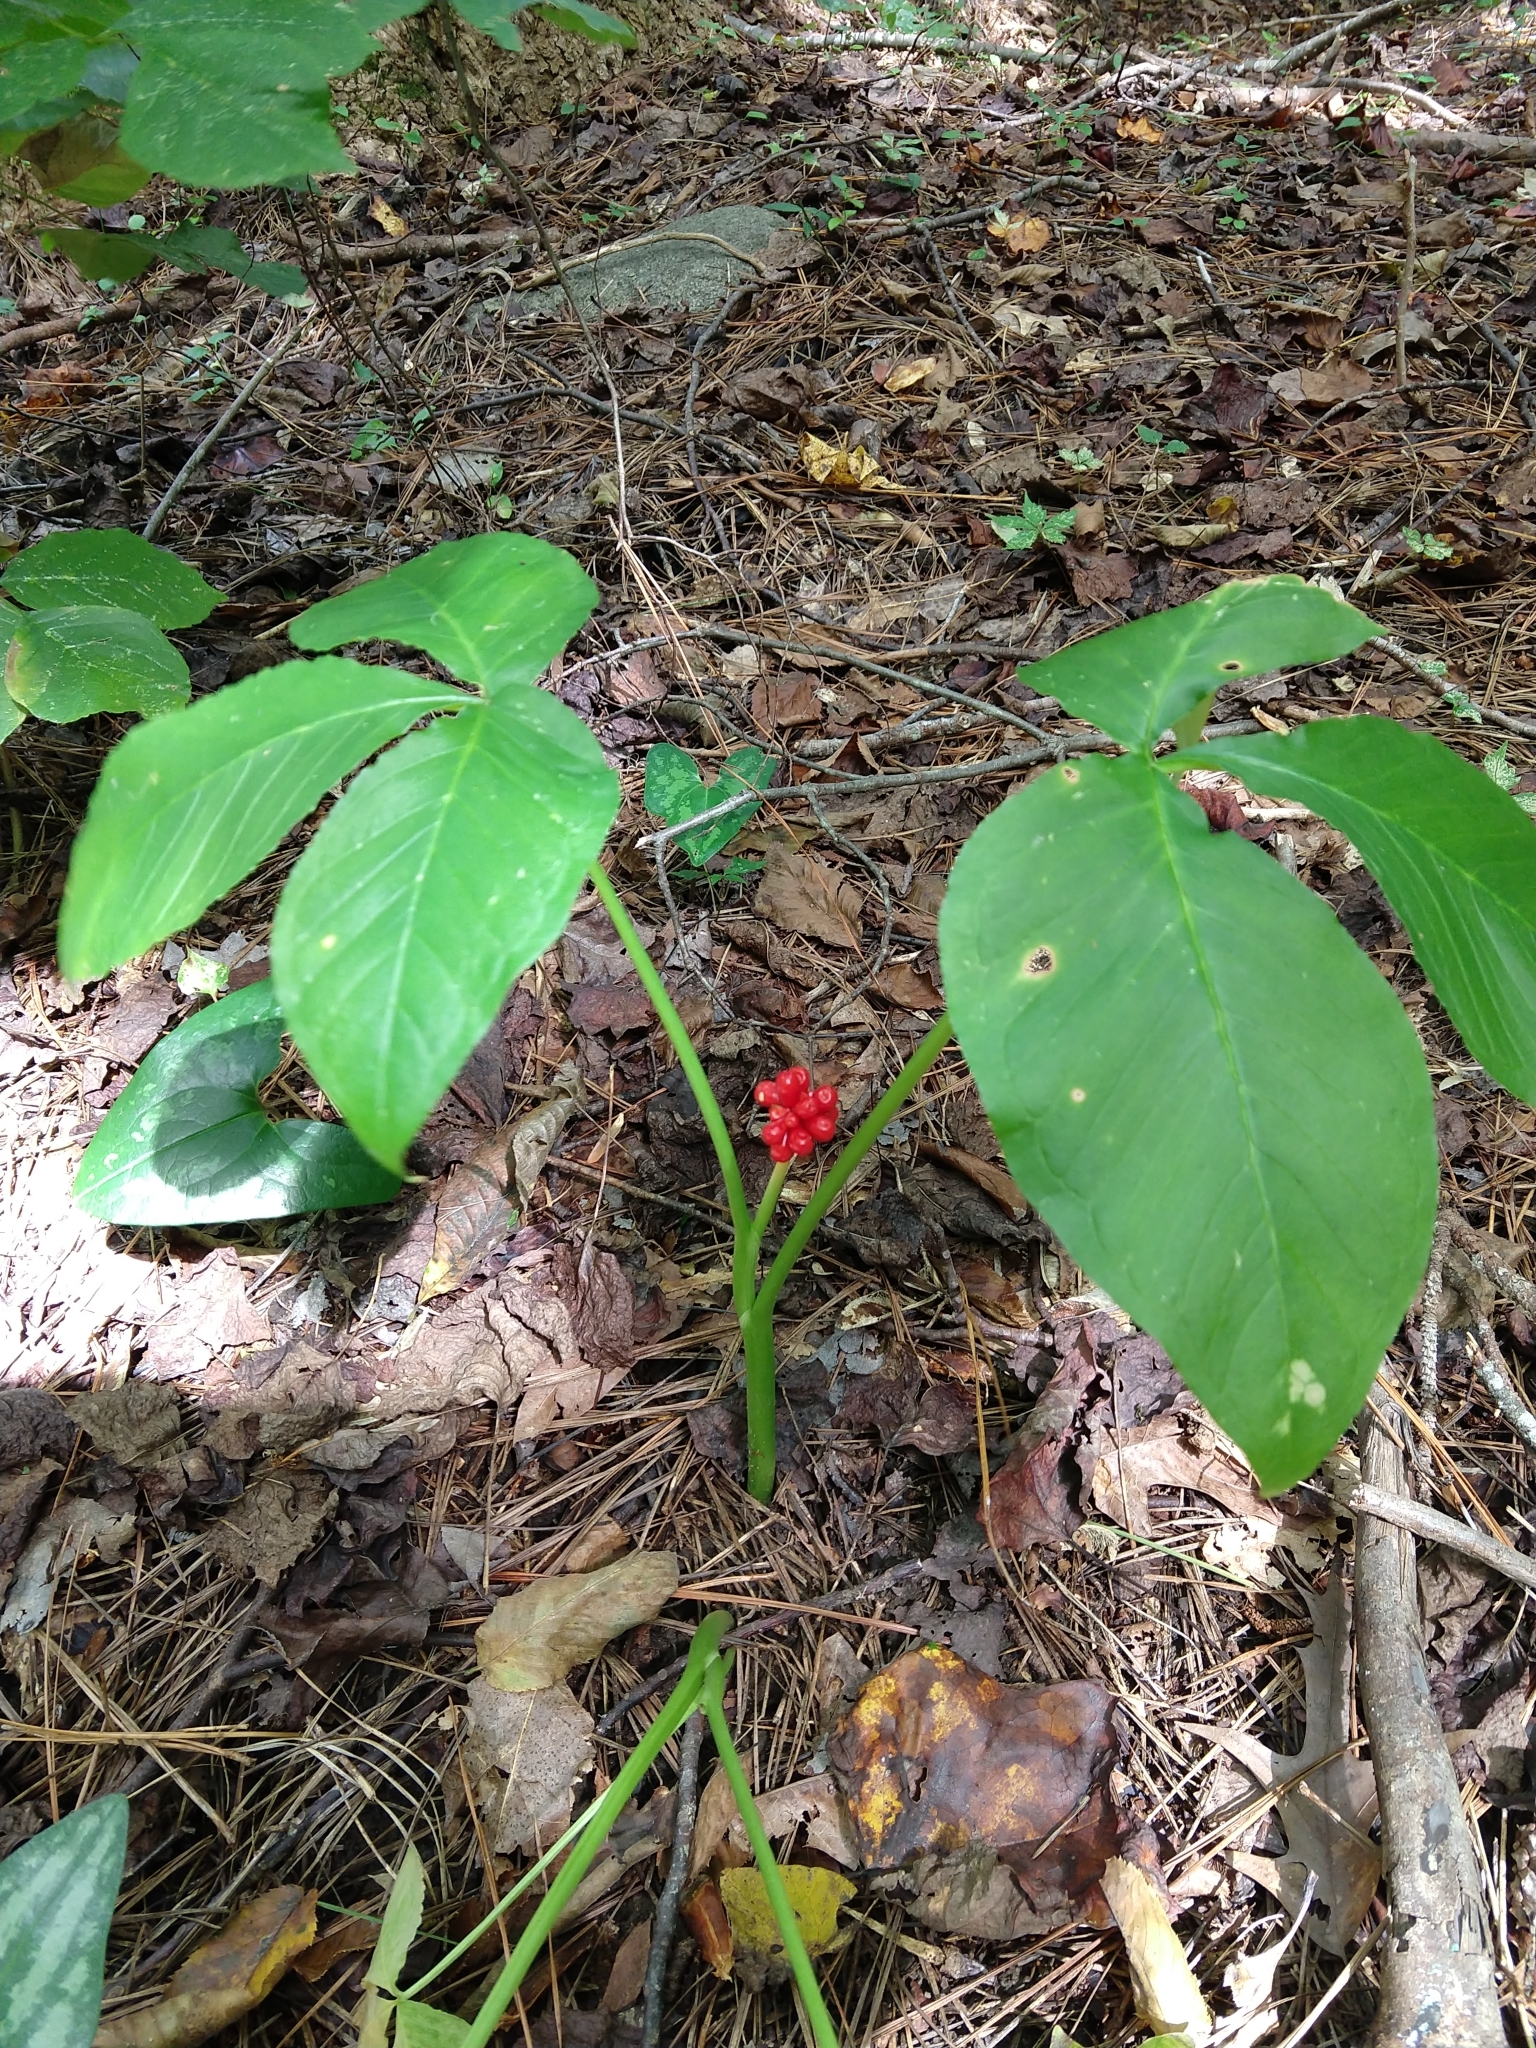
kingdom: Plantae
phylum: Tracheophyta
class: Liliopsida
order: Alismatales
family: Araceae
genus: Arisaema
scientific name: Arisaema triphyllum
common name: Jack-in-the-pulpit
